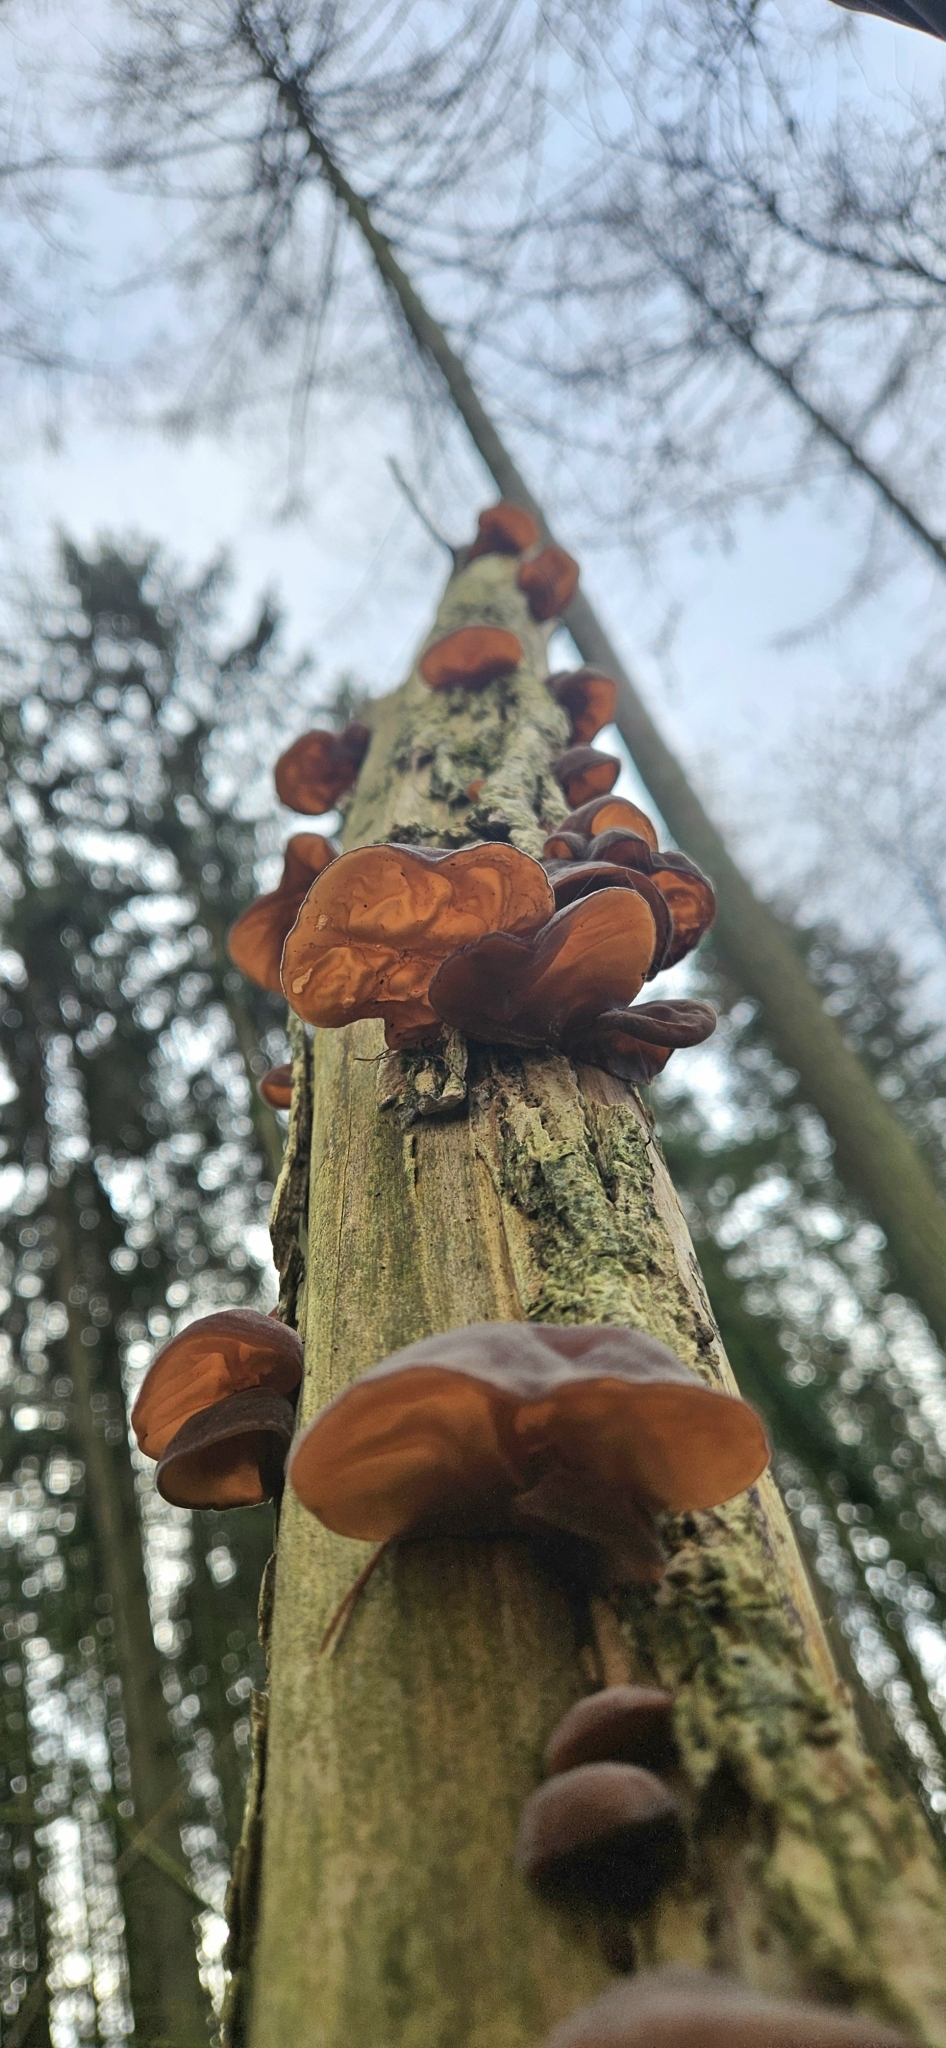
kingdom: Fungi
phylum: Basidiomycota
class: Agaricomycetes
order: Auriculariales
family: Auriculariaceae
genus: Auricularia
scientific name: Auricularia auricula-judae
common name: Jelly ear
